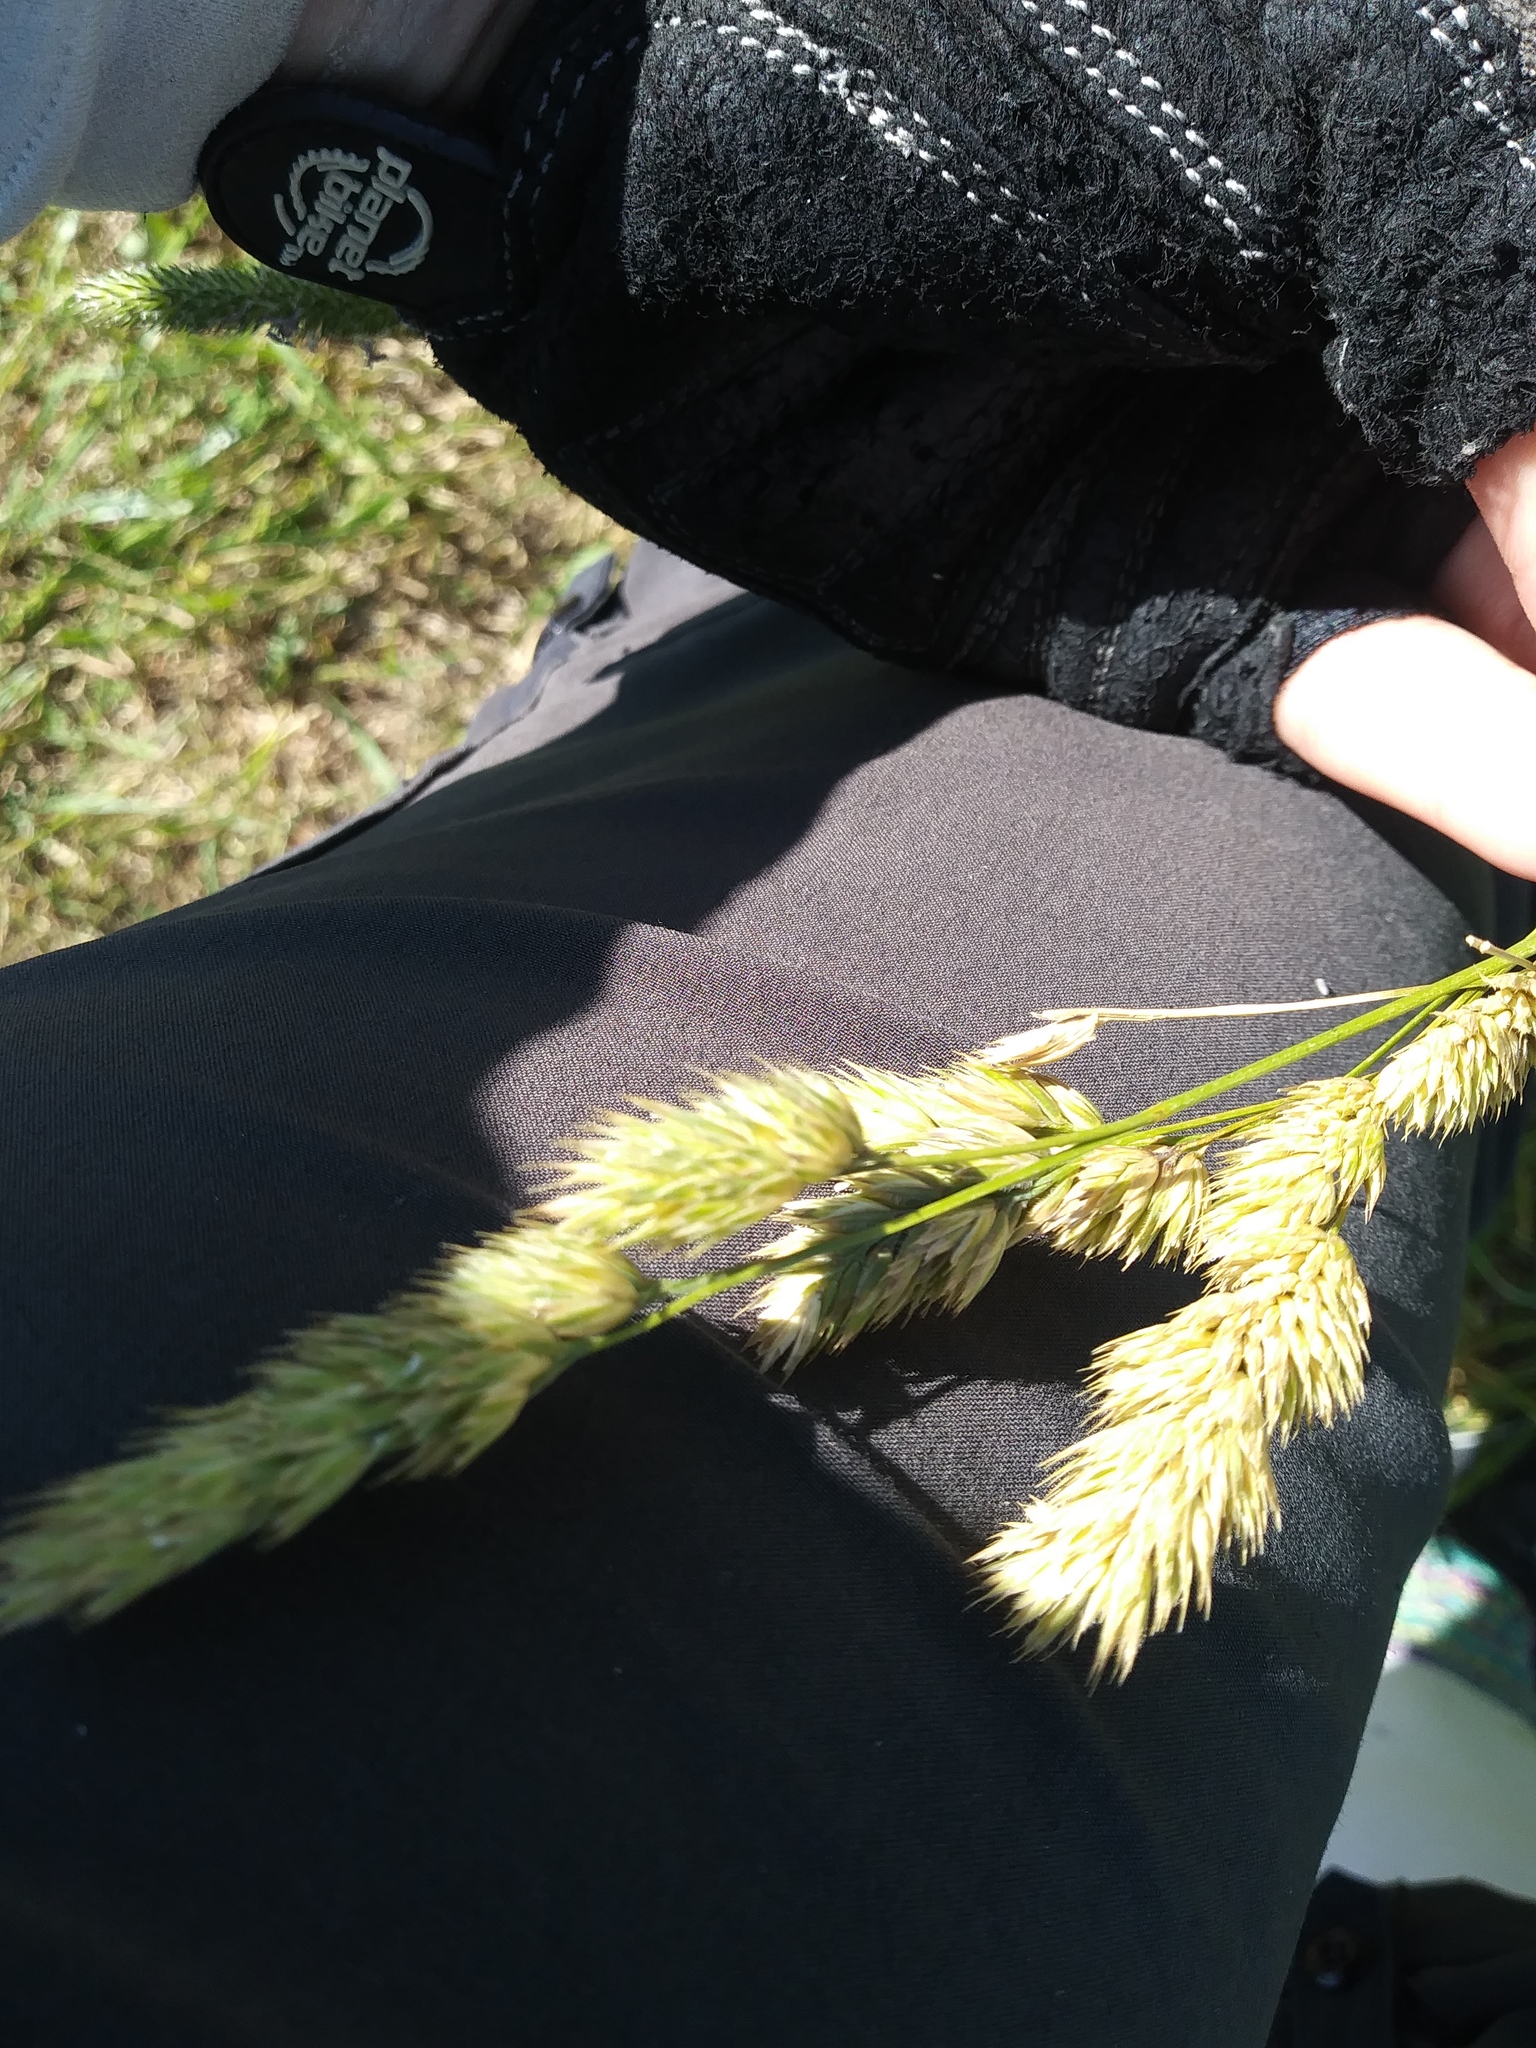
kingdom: Plantae
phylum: Tracheophyta
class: Liliopsida
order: Poales
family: Poaceae
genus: Dactylis
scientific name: Dactylis glomerata
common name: Orchardgrass
